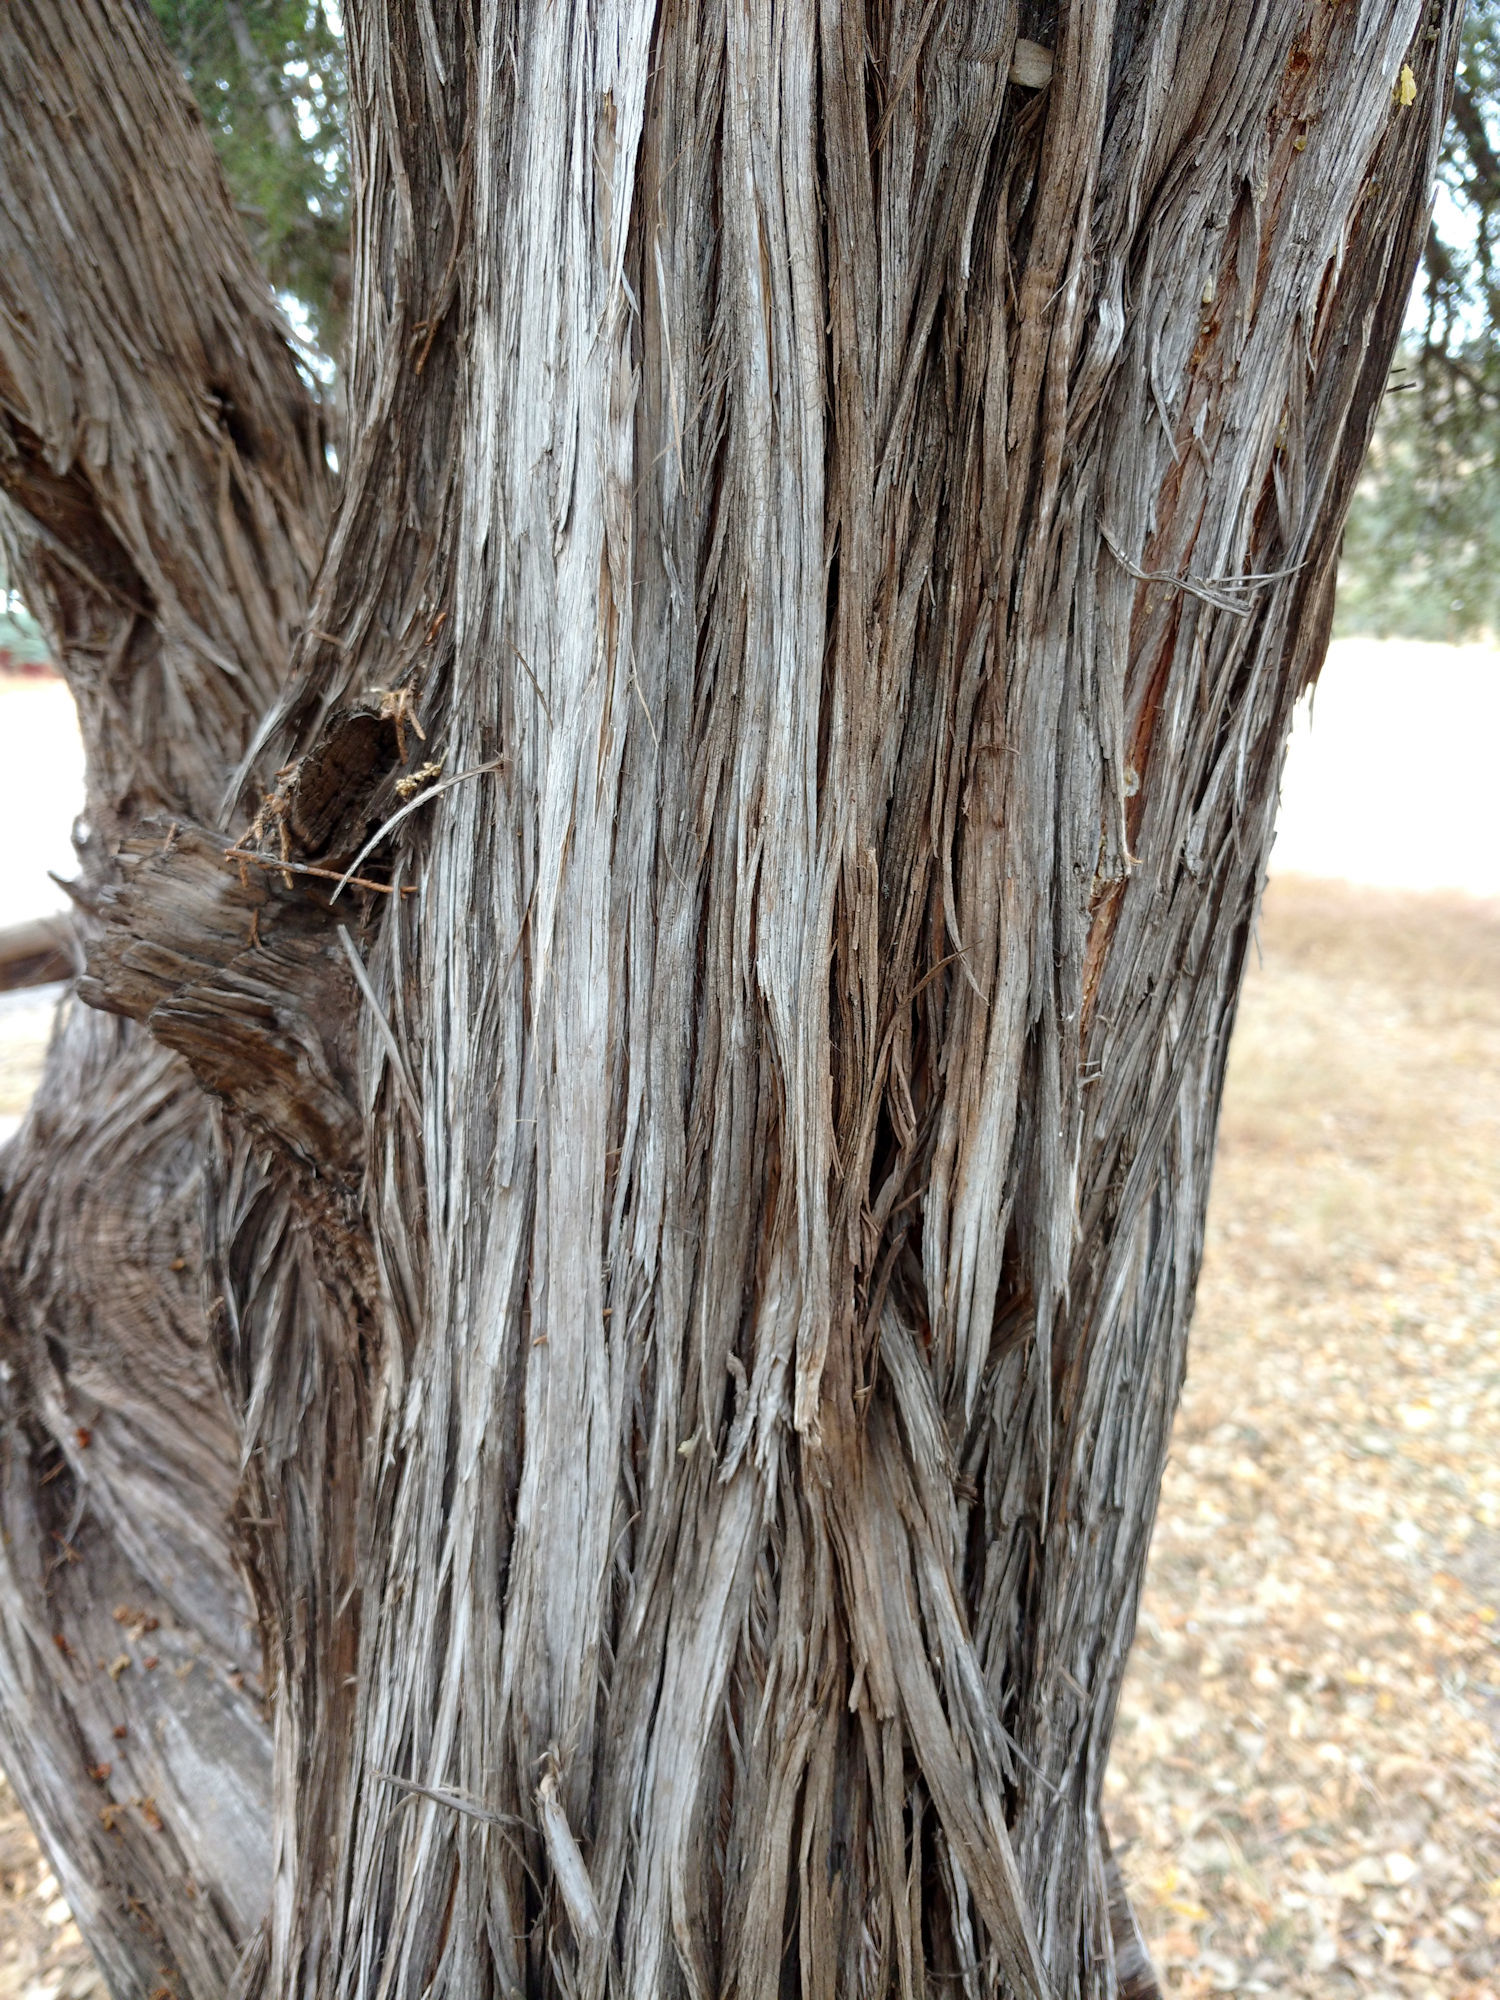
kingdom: Plantae
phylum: Tracheophyta
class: Pinopsida
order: Pinales
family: Cupressaceae
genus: Juniperus
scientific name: Juniperus monosperma
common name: One-seed juniper
